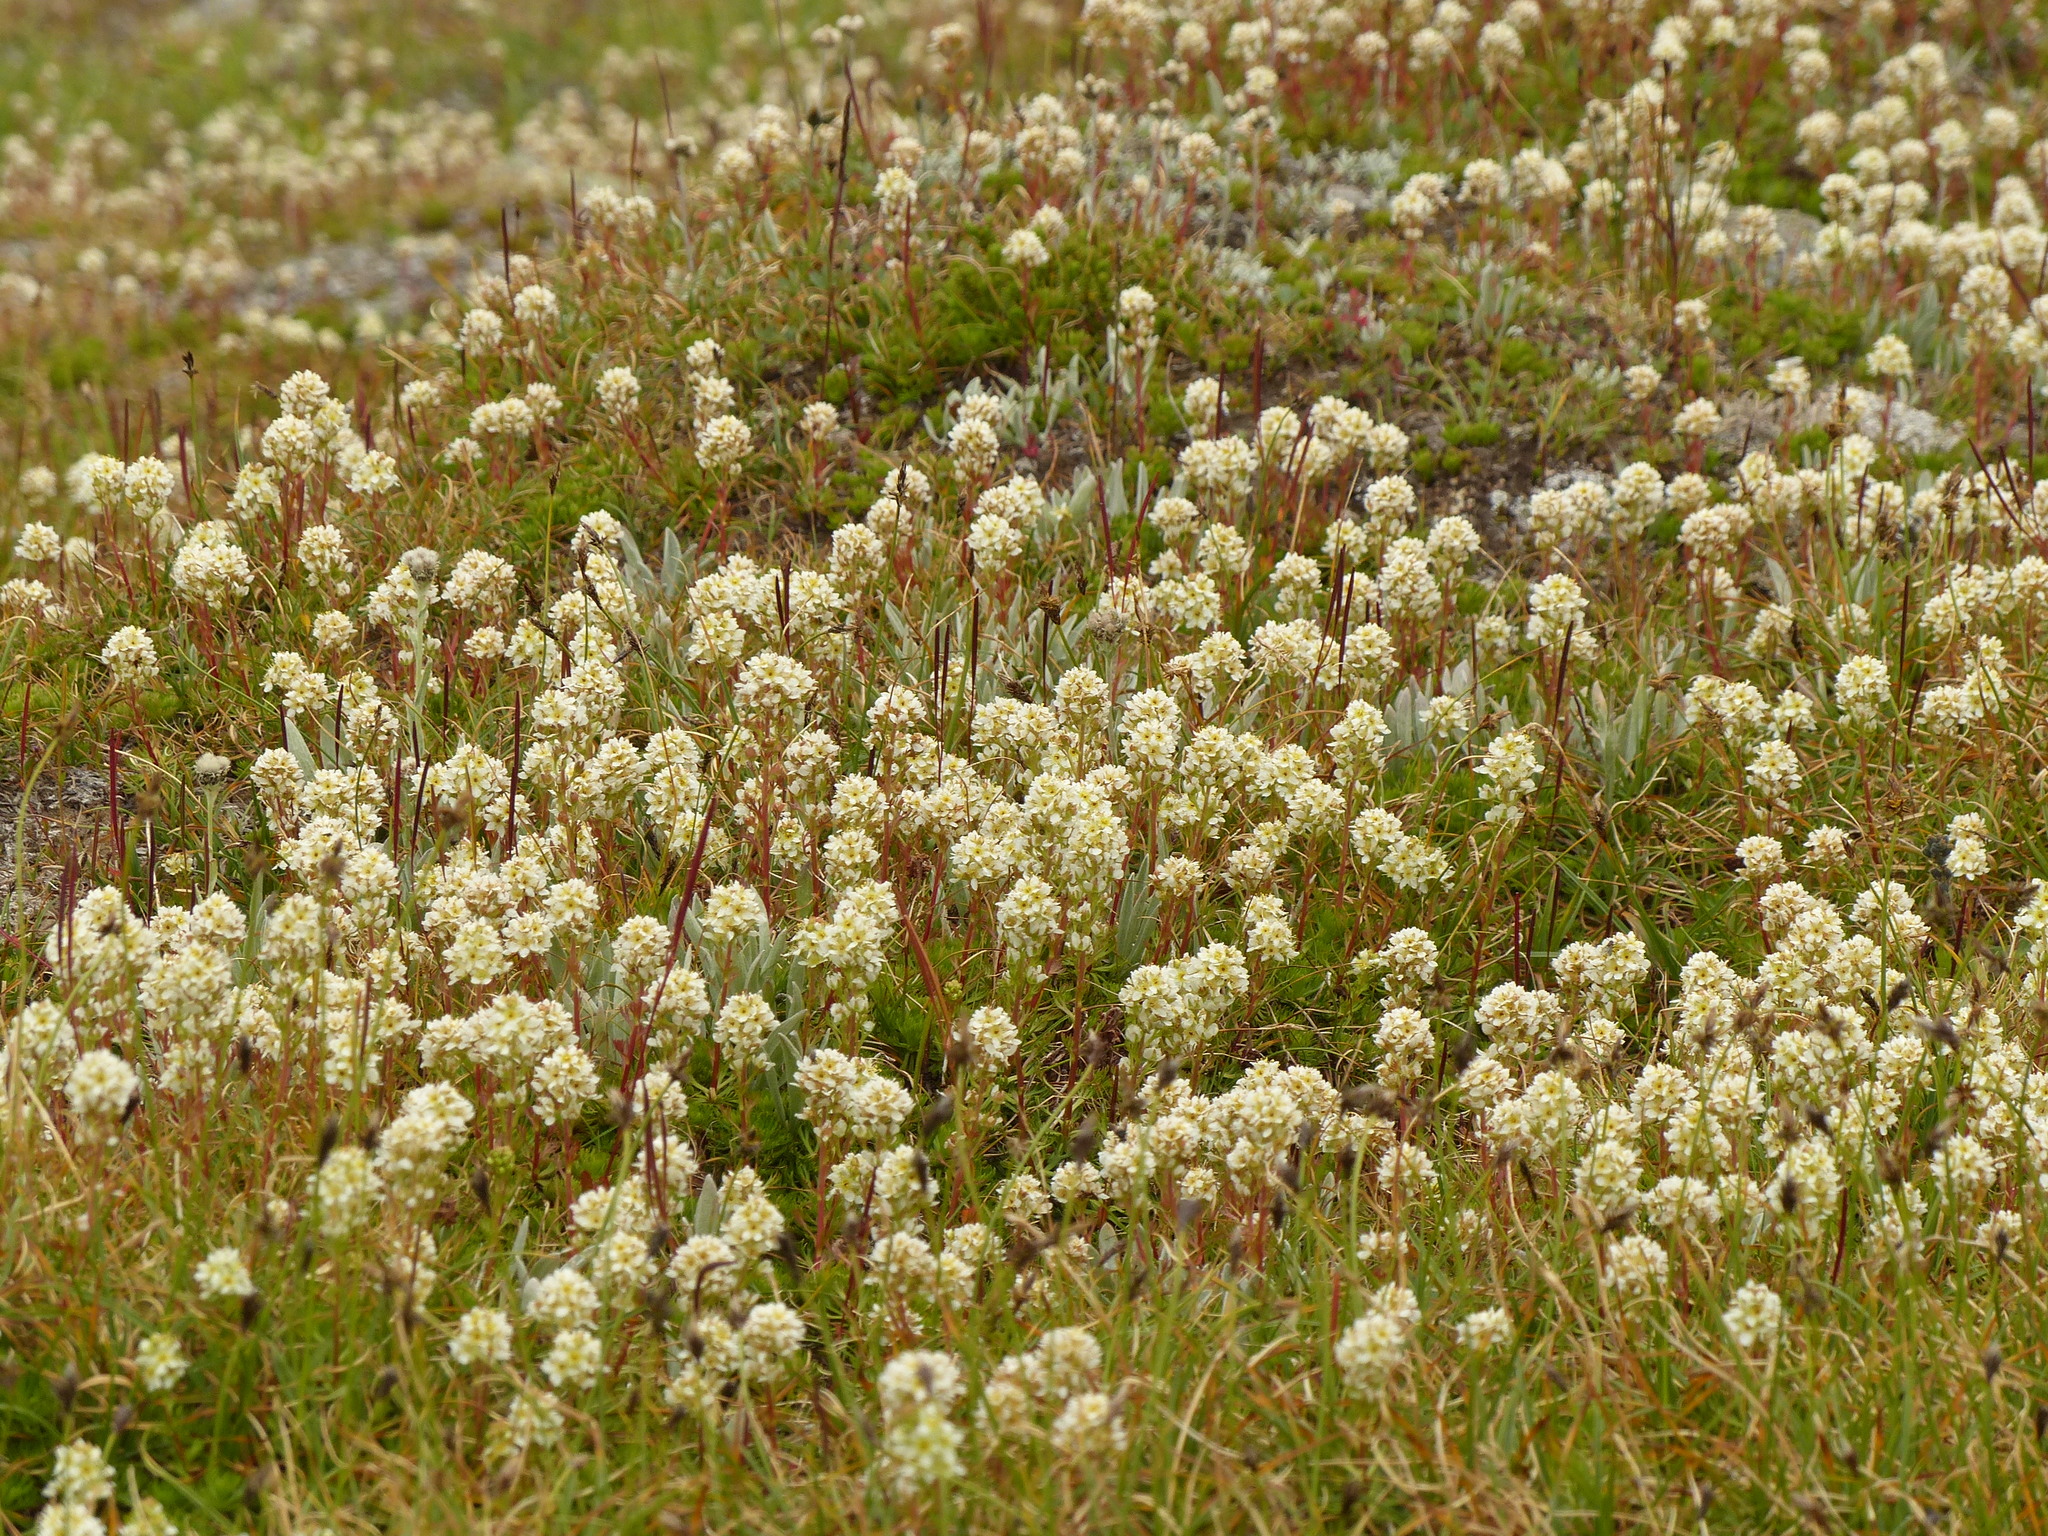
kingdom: Plantae
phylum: Tracheophyta
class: Magnoliopsida
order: Rosales
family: Rosaceae
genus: Luetkea
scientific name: Luetkea pectinata
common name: Partridgefoot
